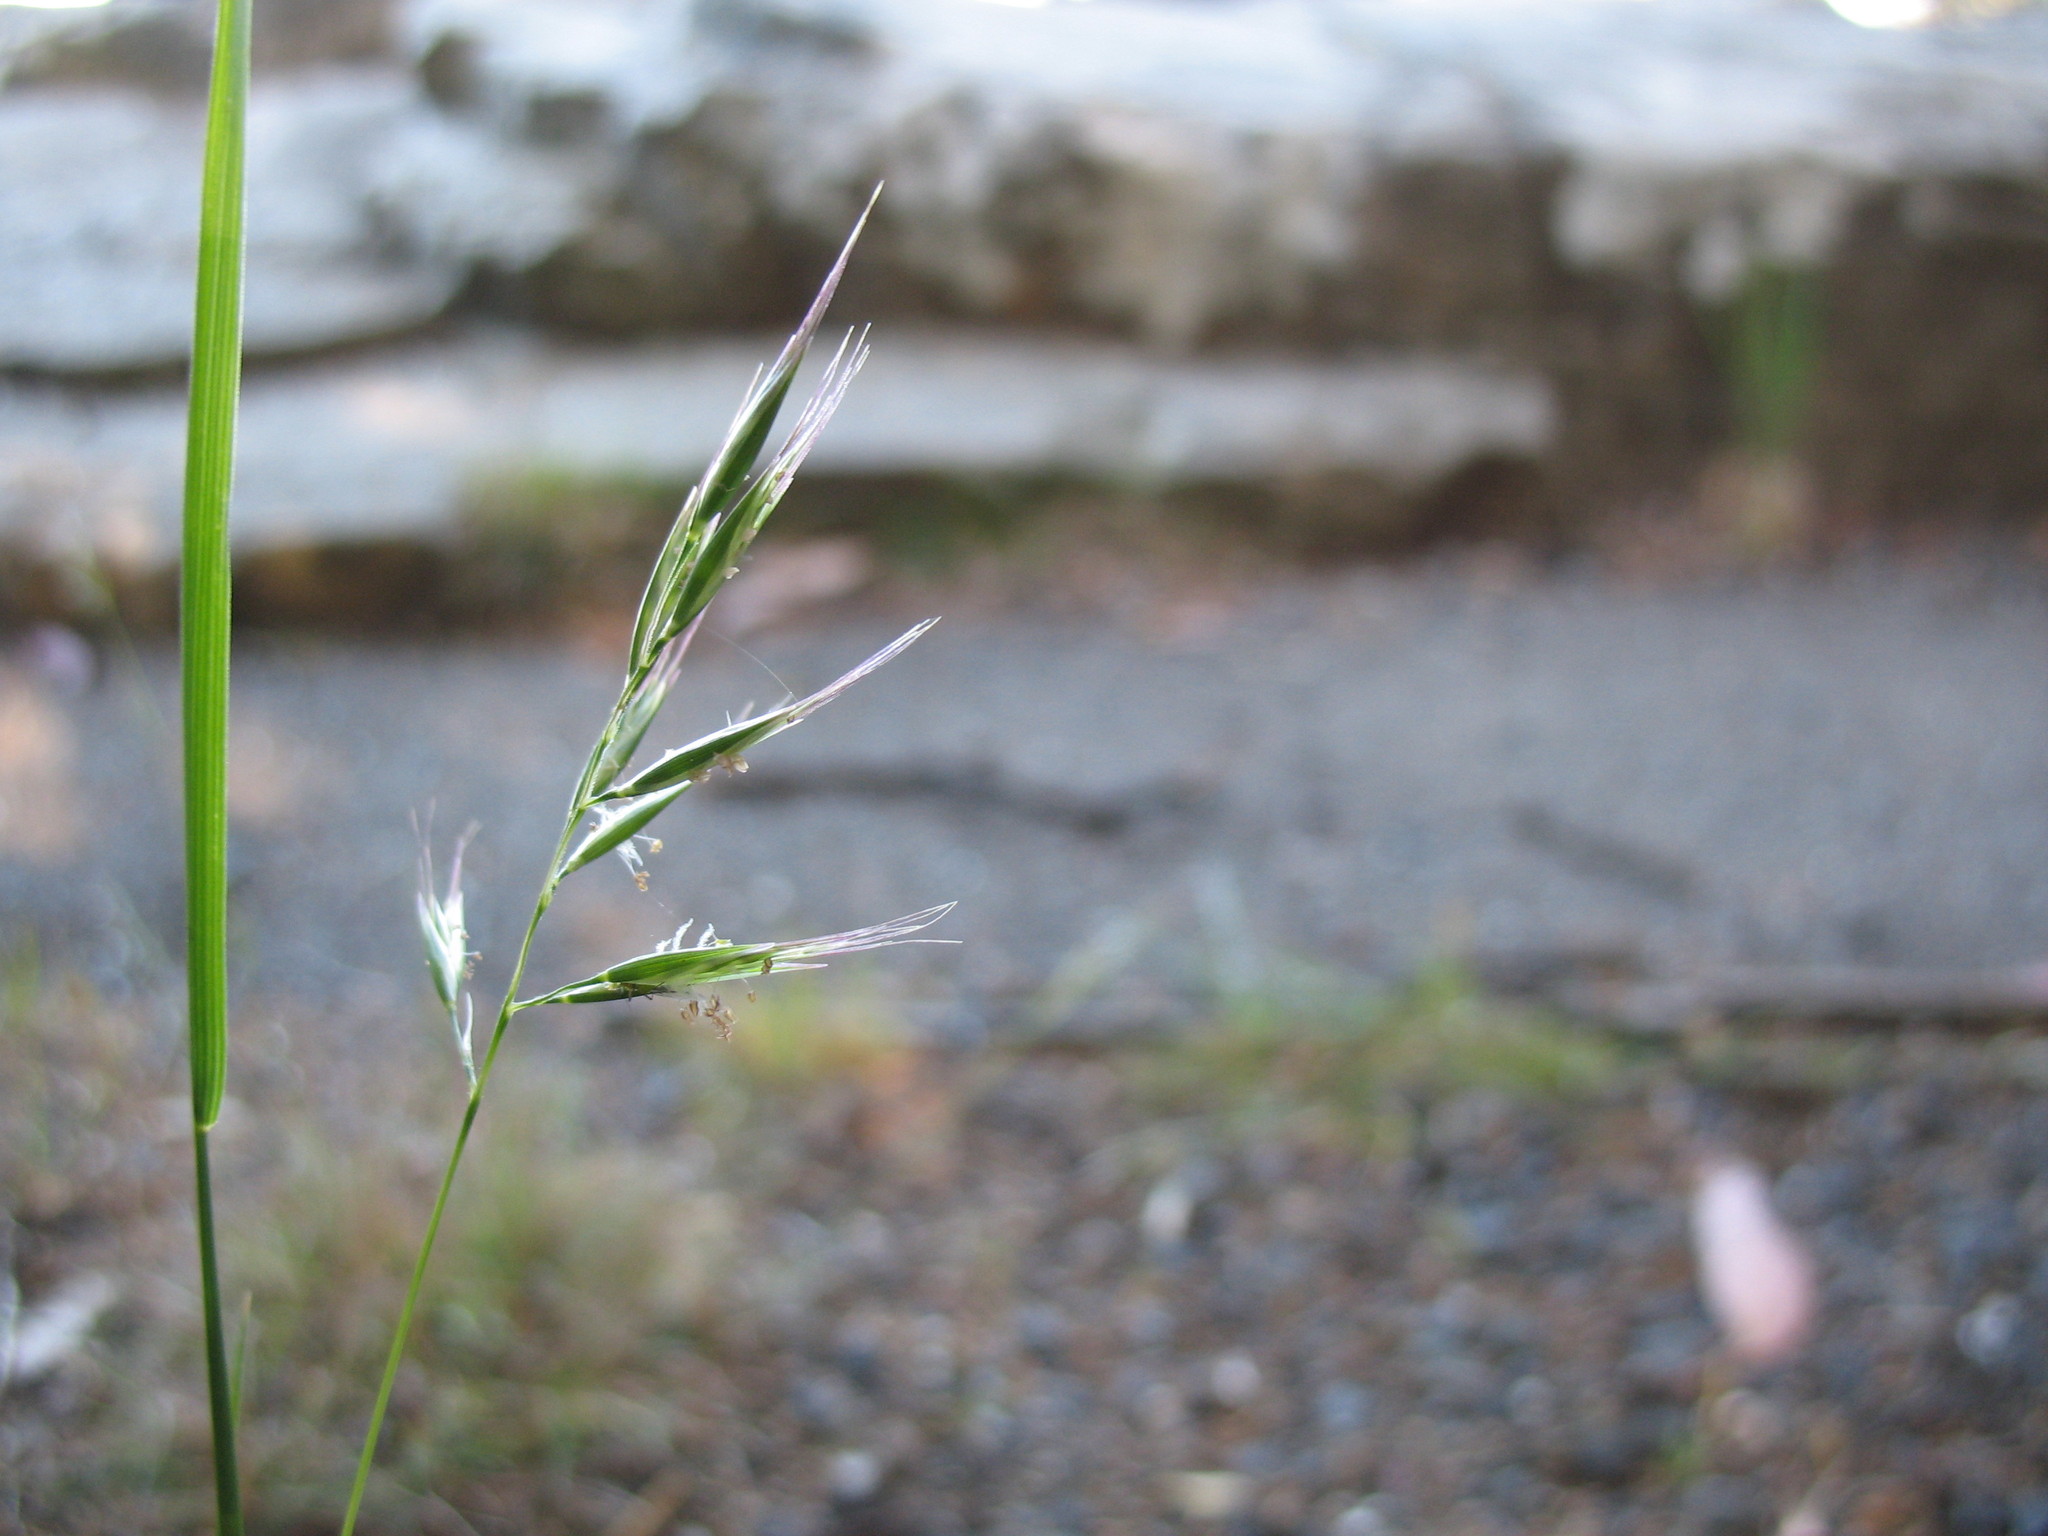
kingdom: Plantae
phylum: Tracheophyta
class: Liliopsida
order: Poales
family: Poaceae
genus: Rytidosperma
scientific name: Rytidosperma racemosum
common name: Wallaby-grass
